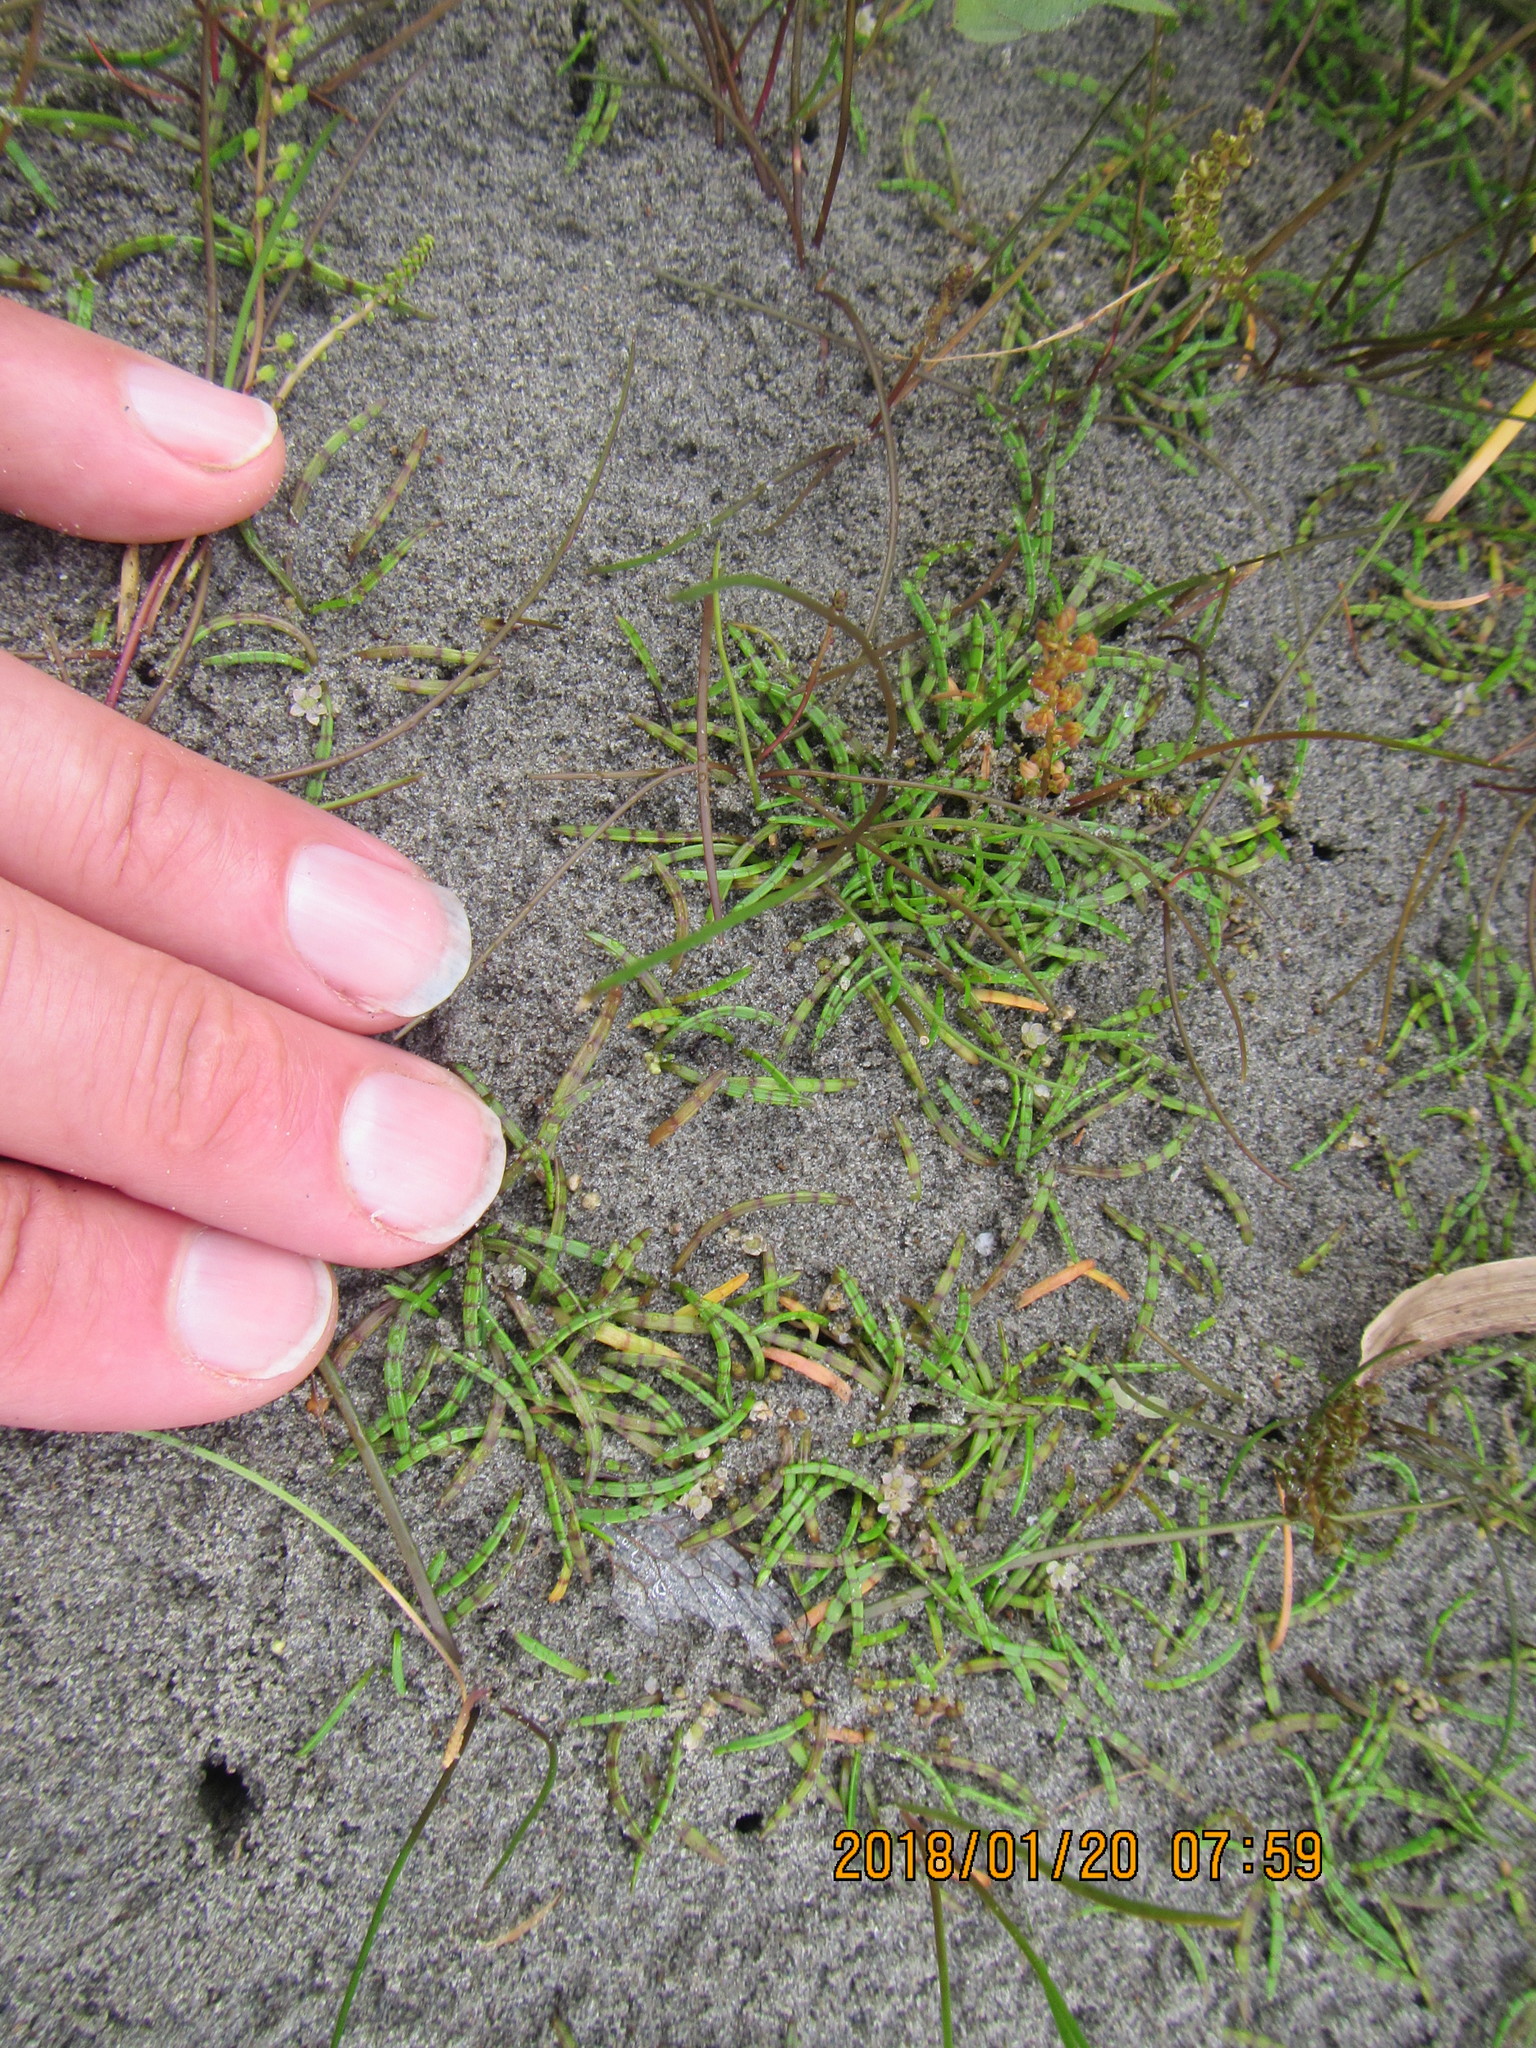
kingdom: Plantae
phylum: Tracheophyta
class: Magnoliopsida
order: Apiales
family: Apiaceae
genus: Lilaeopsis
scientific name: Lilaeopsis novae-zelandiae
